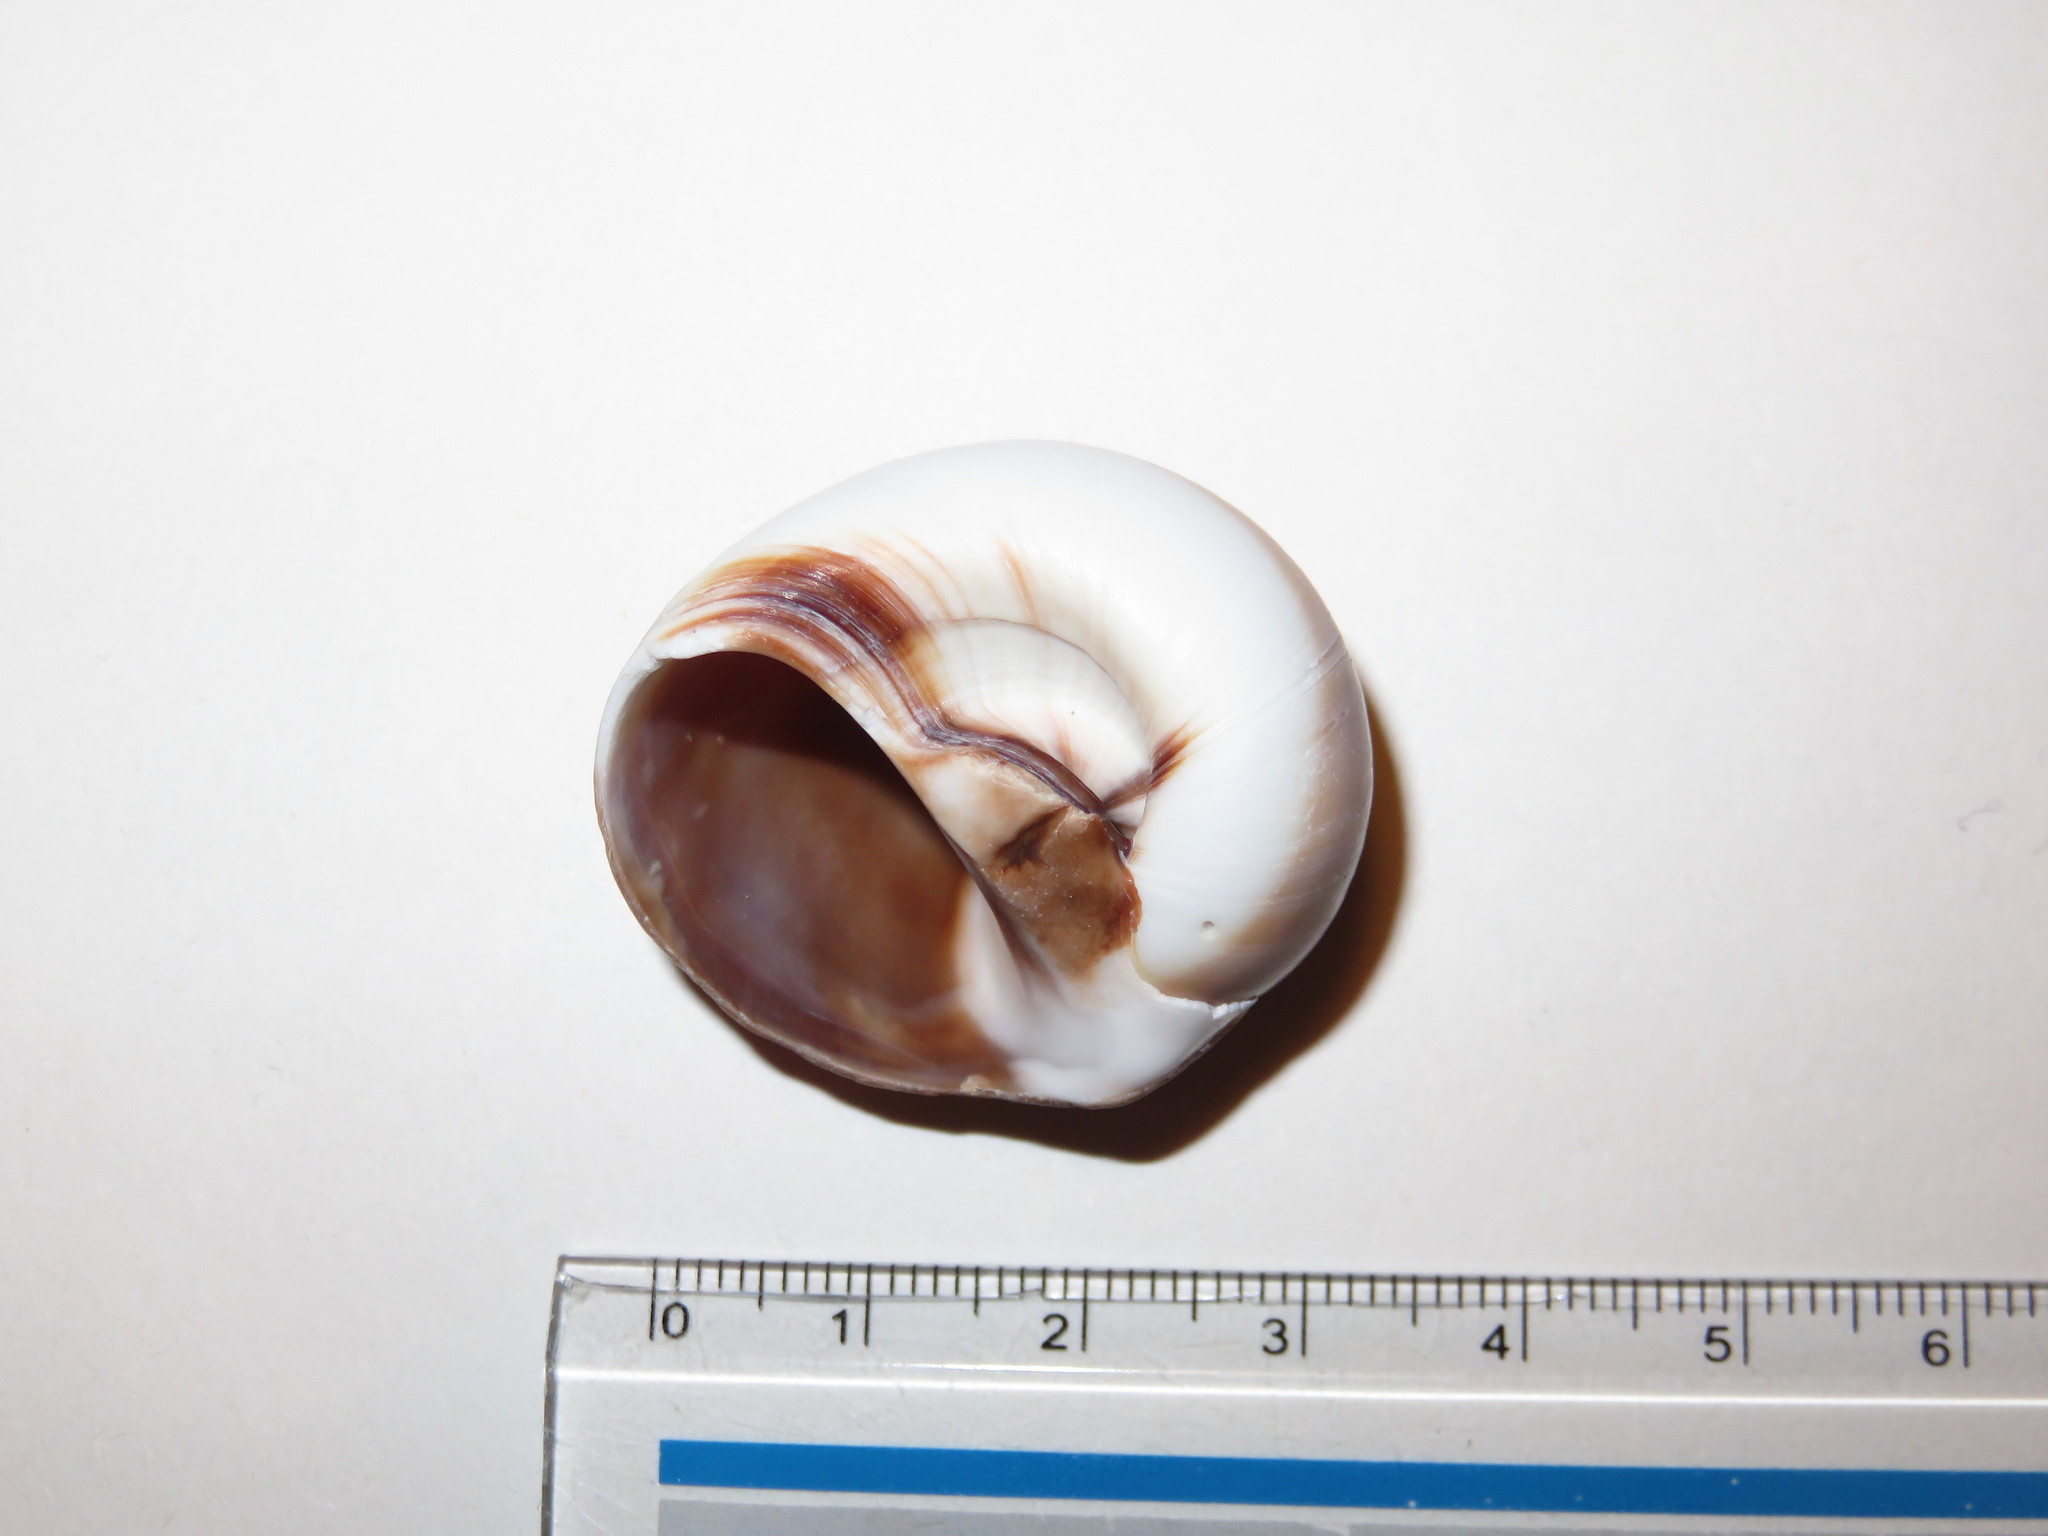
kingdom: Animalia
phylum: Mollusca
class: Gastropoda
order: Littorinimorpha
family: Naticidae
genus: Neverita
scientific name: Neverita didyma
